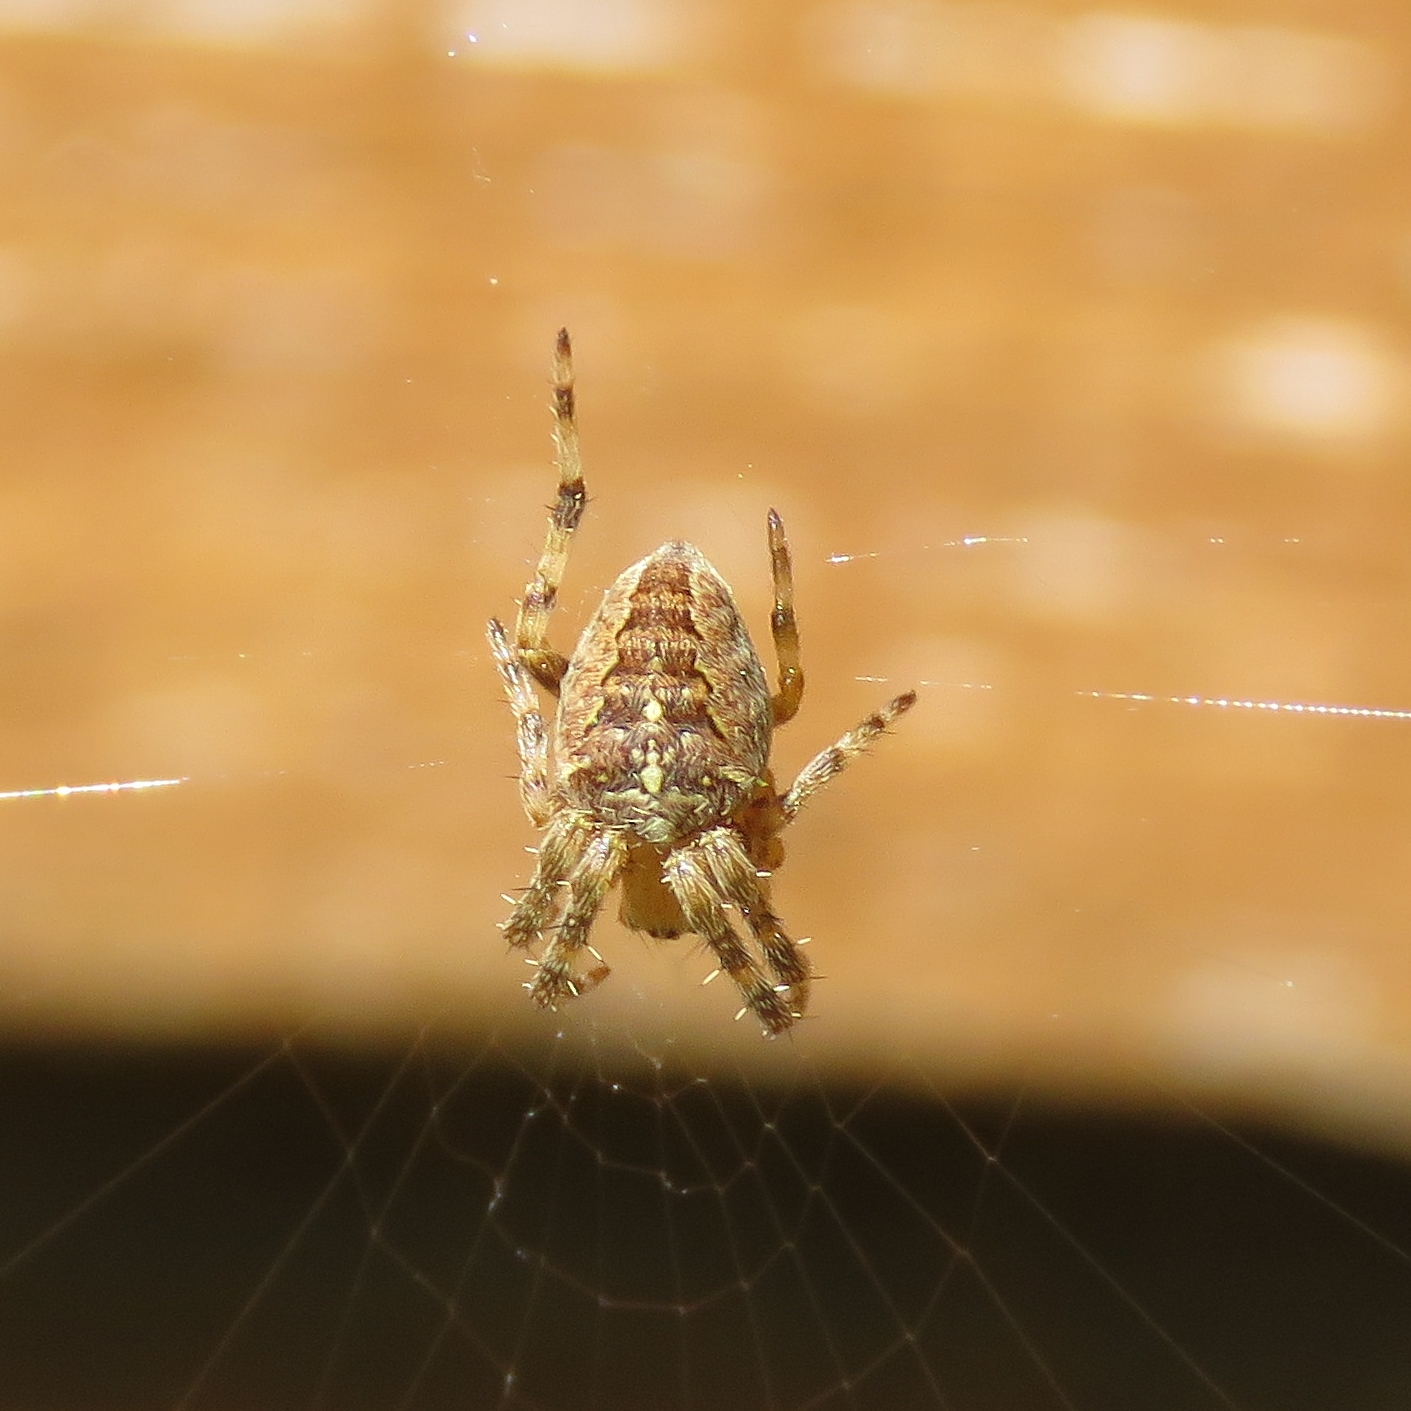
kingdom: Animalia
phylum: Arthropoda
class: Arachnida
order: Araneae
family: Araneidae
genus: Araneus
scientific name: Araneus diadematus
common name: Cross orbweaver
